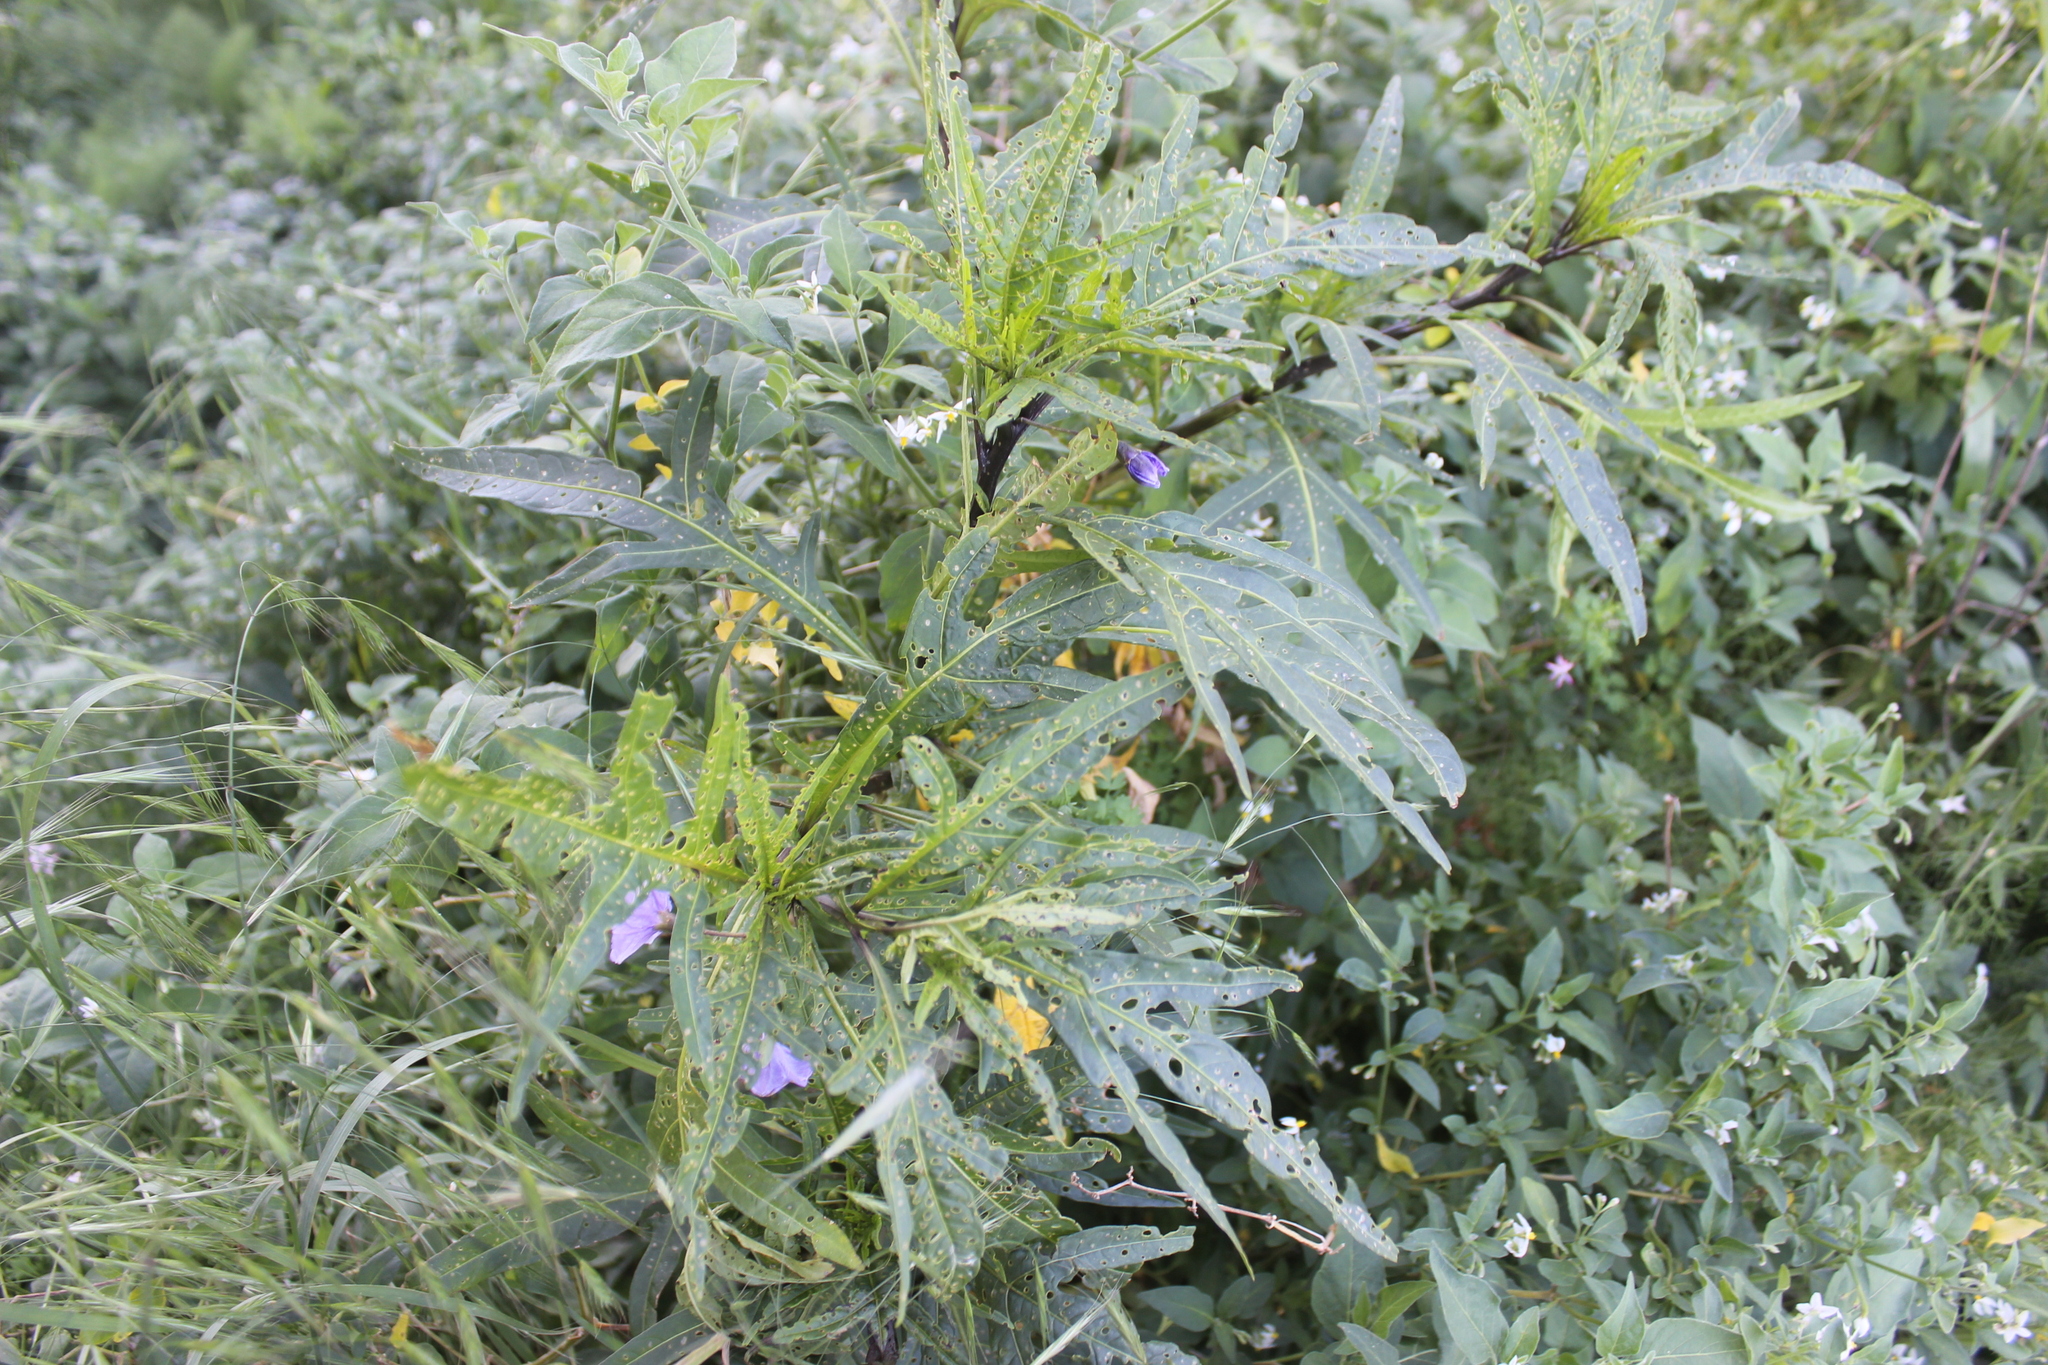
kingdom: Plantae
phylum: Tracheophyta
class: Magnoliopsida
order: Solanales
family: Solanaceae
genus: Solanum
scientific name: Solanum laciniatum
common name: Kangaroo-apple
